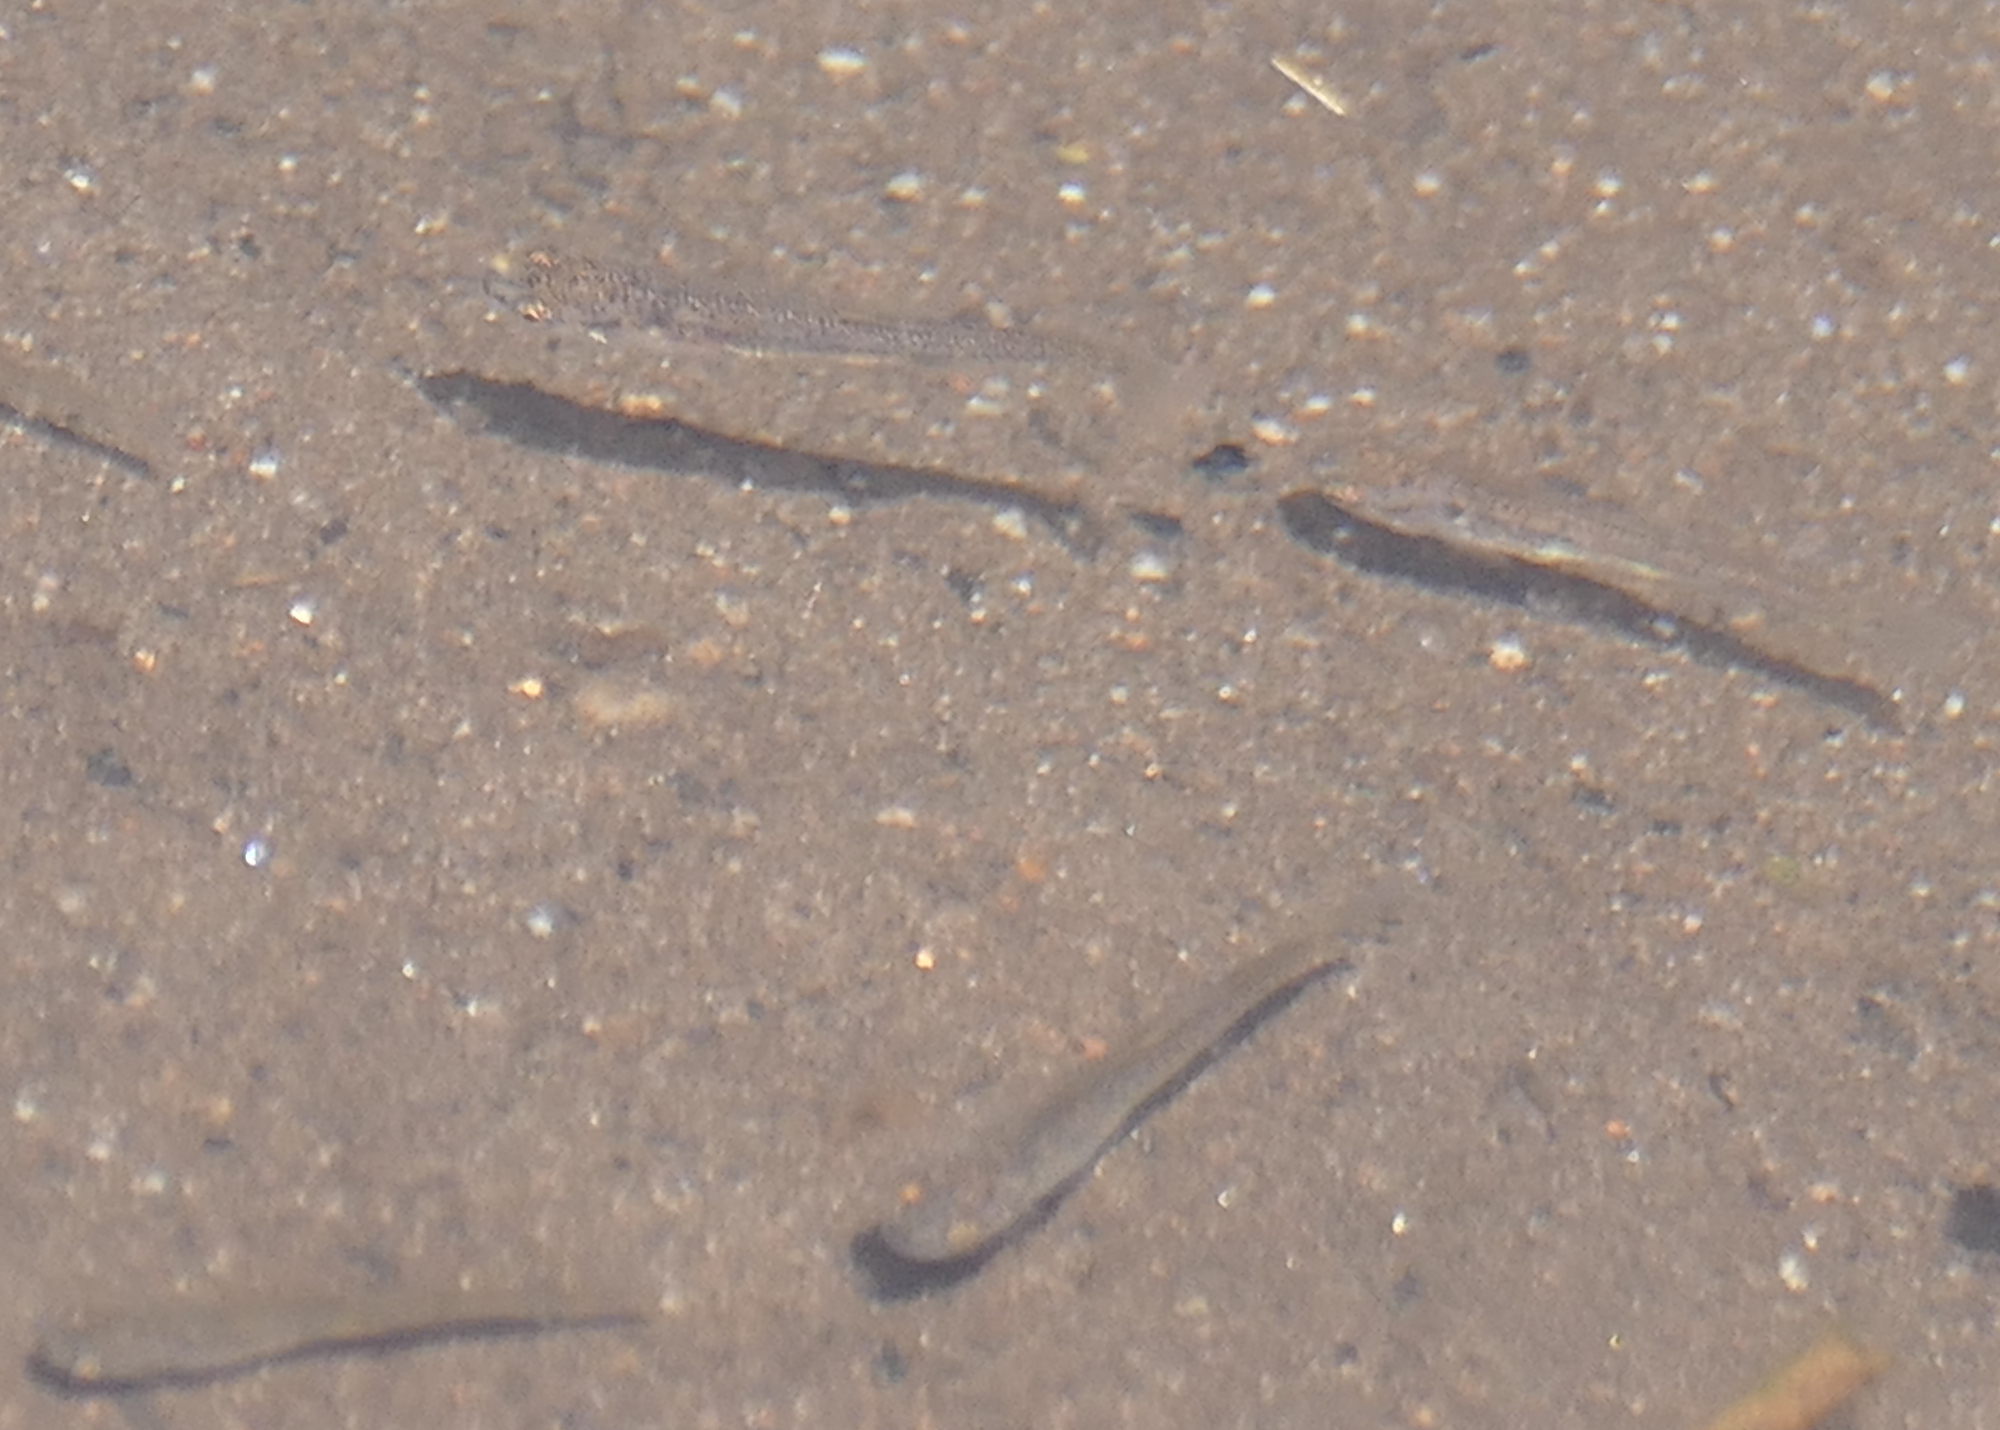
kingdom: Animalia
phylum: Chordata
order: Cyprinodontiformes
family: Poeciliidae
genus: Gambusia
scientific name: Gambusia affinis
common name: Mosquitofish
